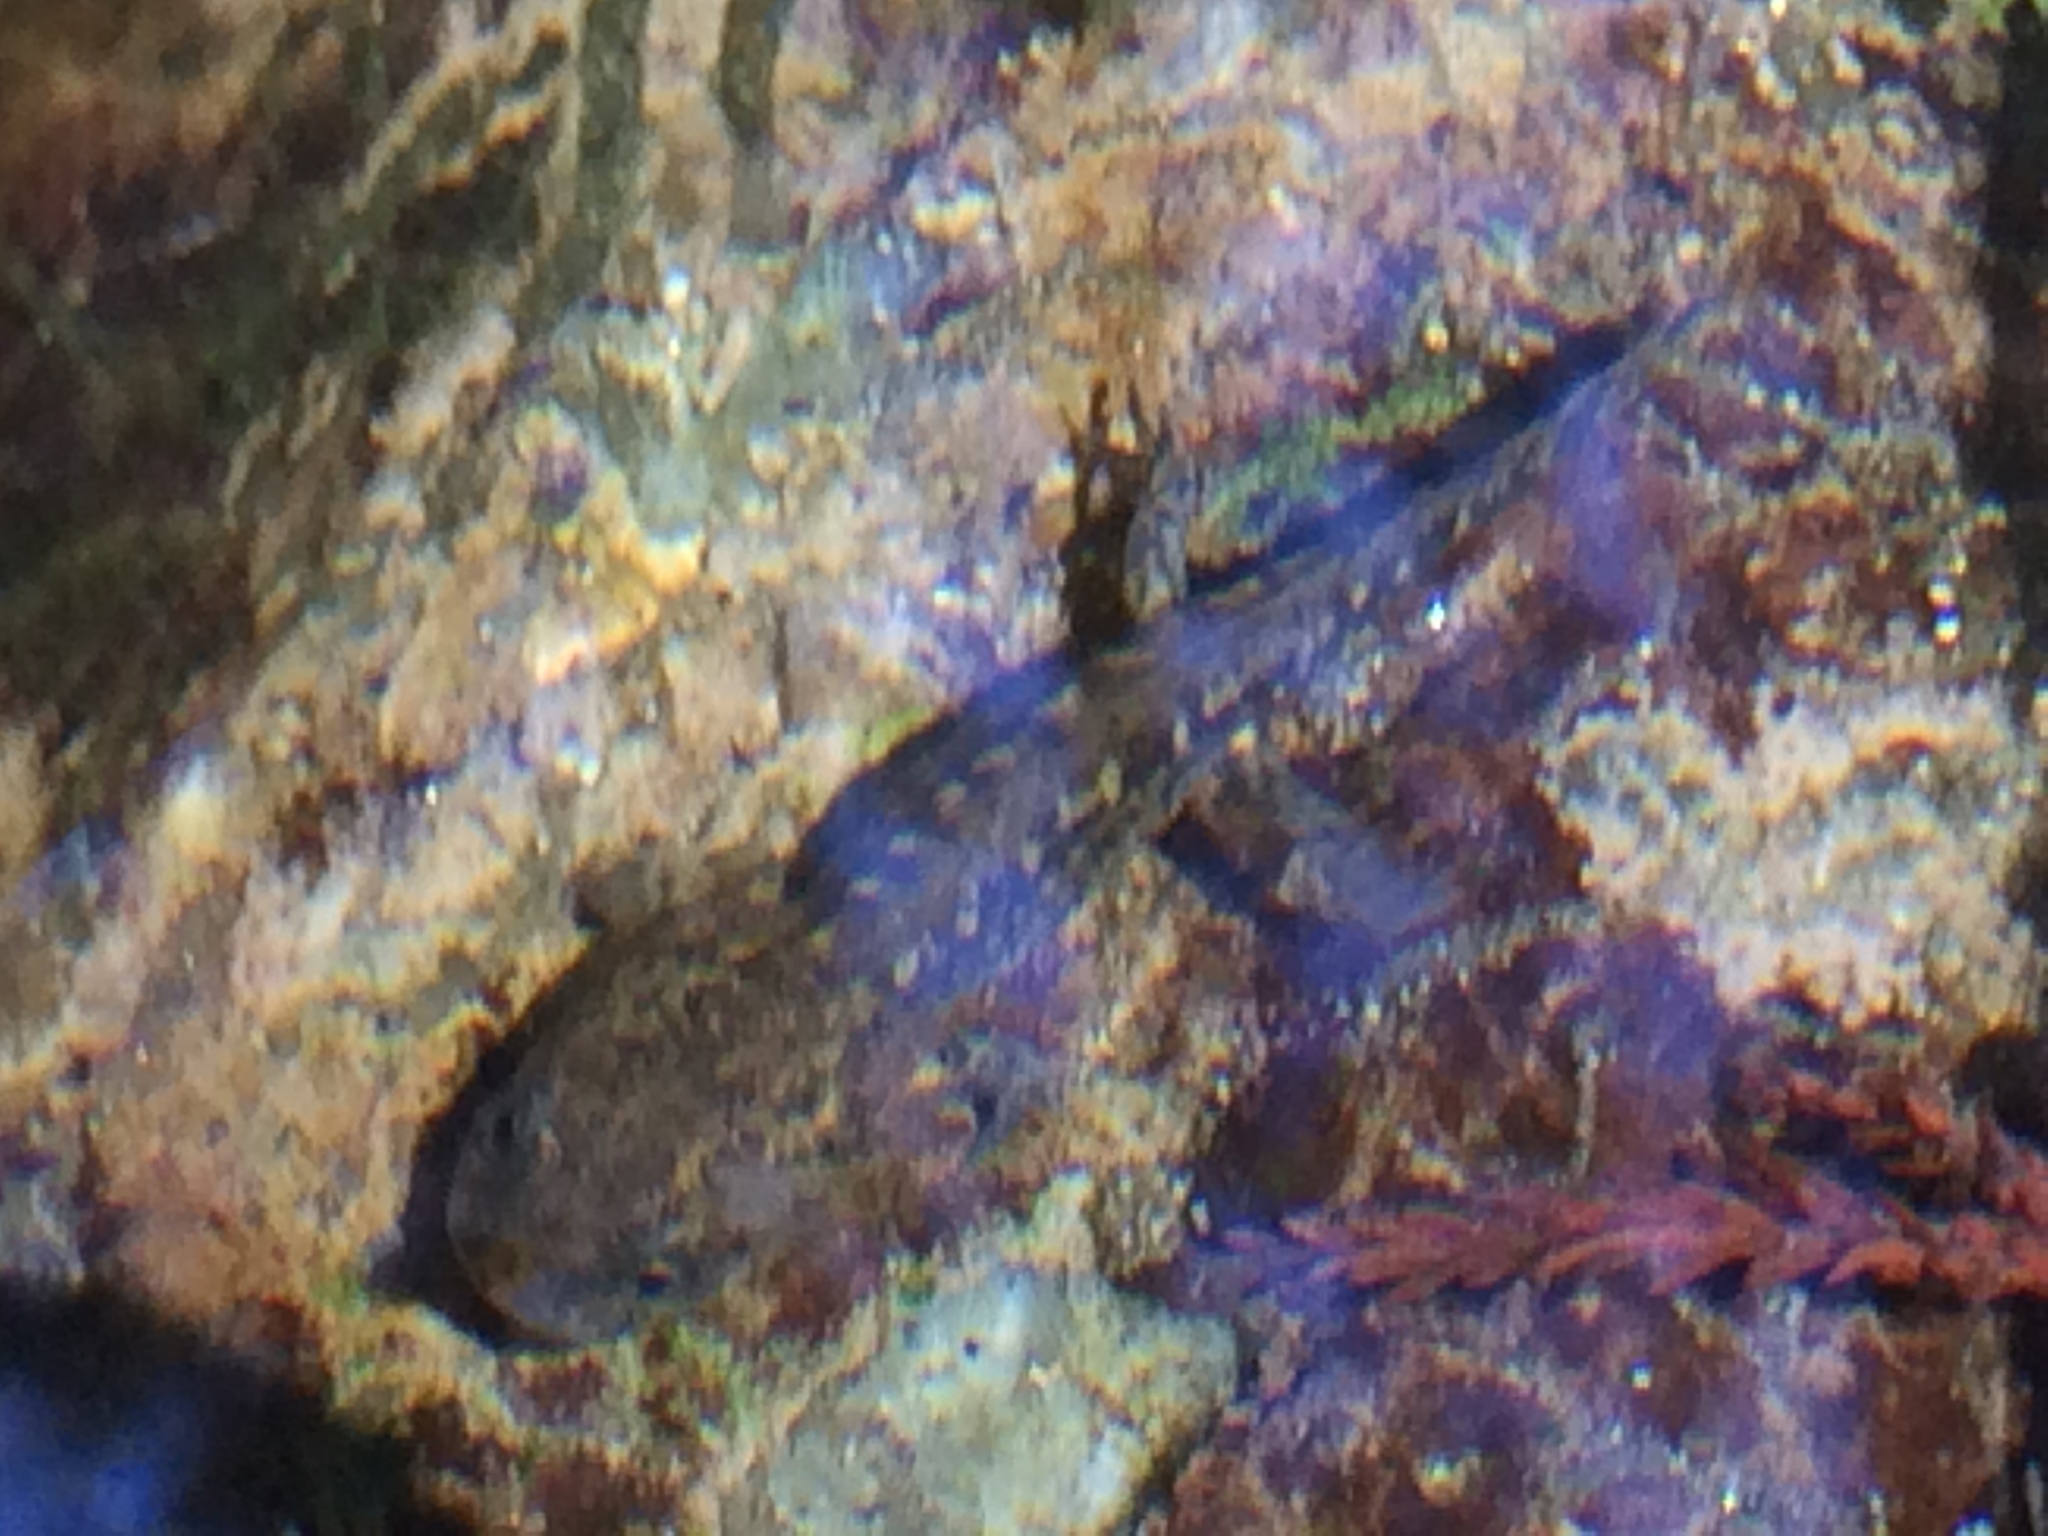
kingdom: Animalia
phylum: Chordata
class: Amphibia
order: Caudata
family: Salamandridae
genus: Salamandra
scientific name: Salamandra salamandra
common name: Fire salamander
